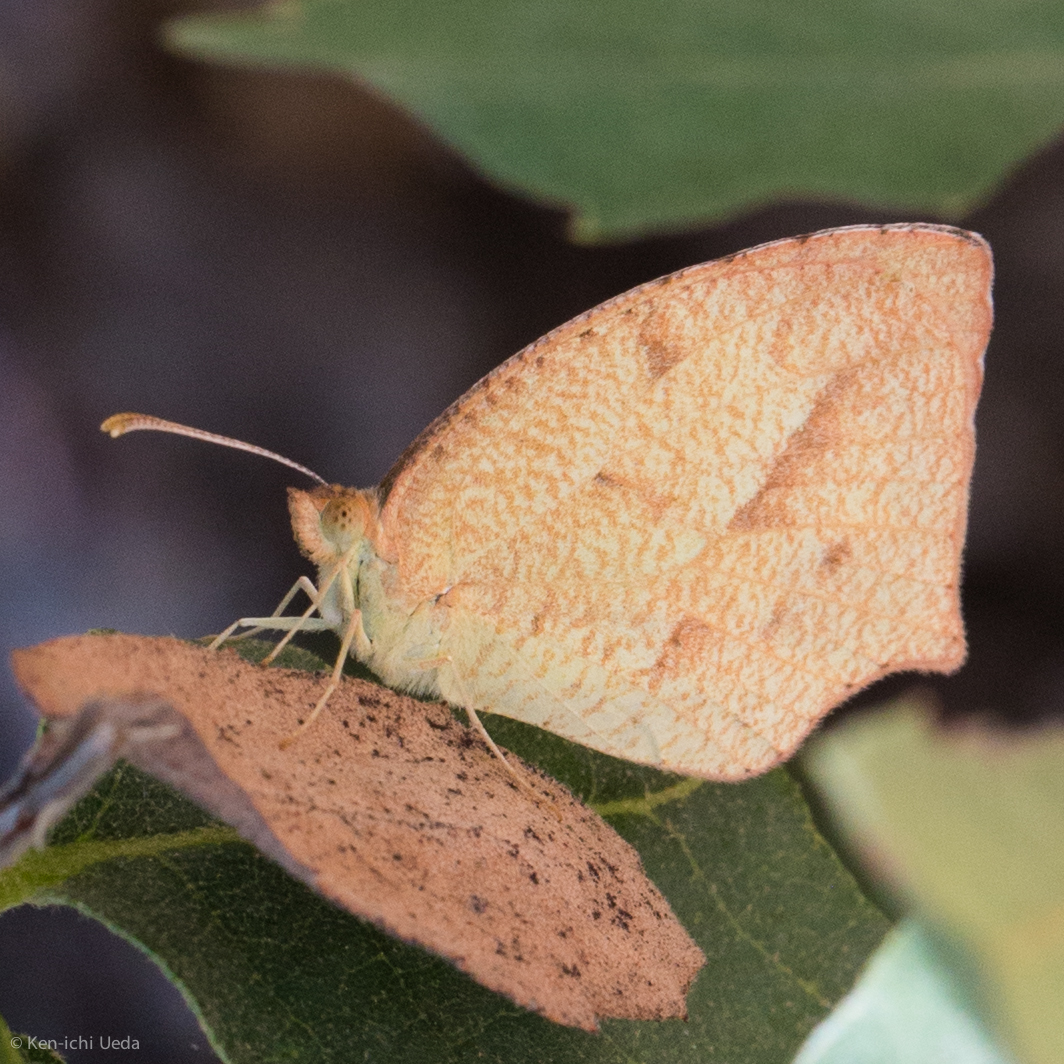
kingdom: Animalia
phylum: Arthropoda
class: Insecta
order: Lepidoptera
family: Pieridae
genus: Abaeis
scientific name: Abaeis mexicana
